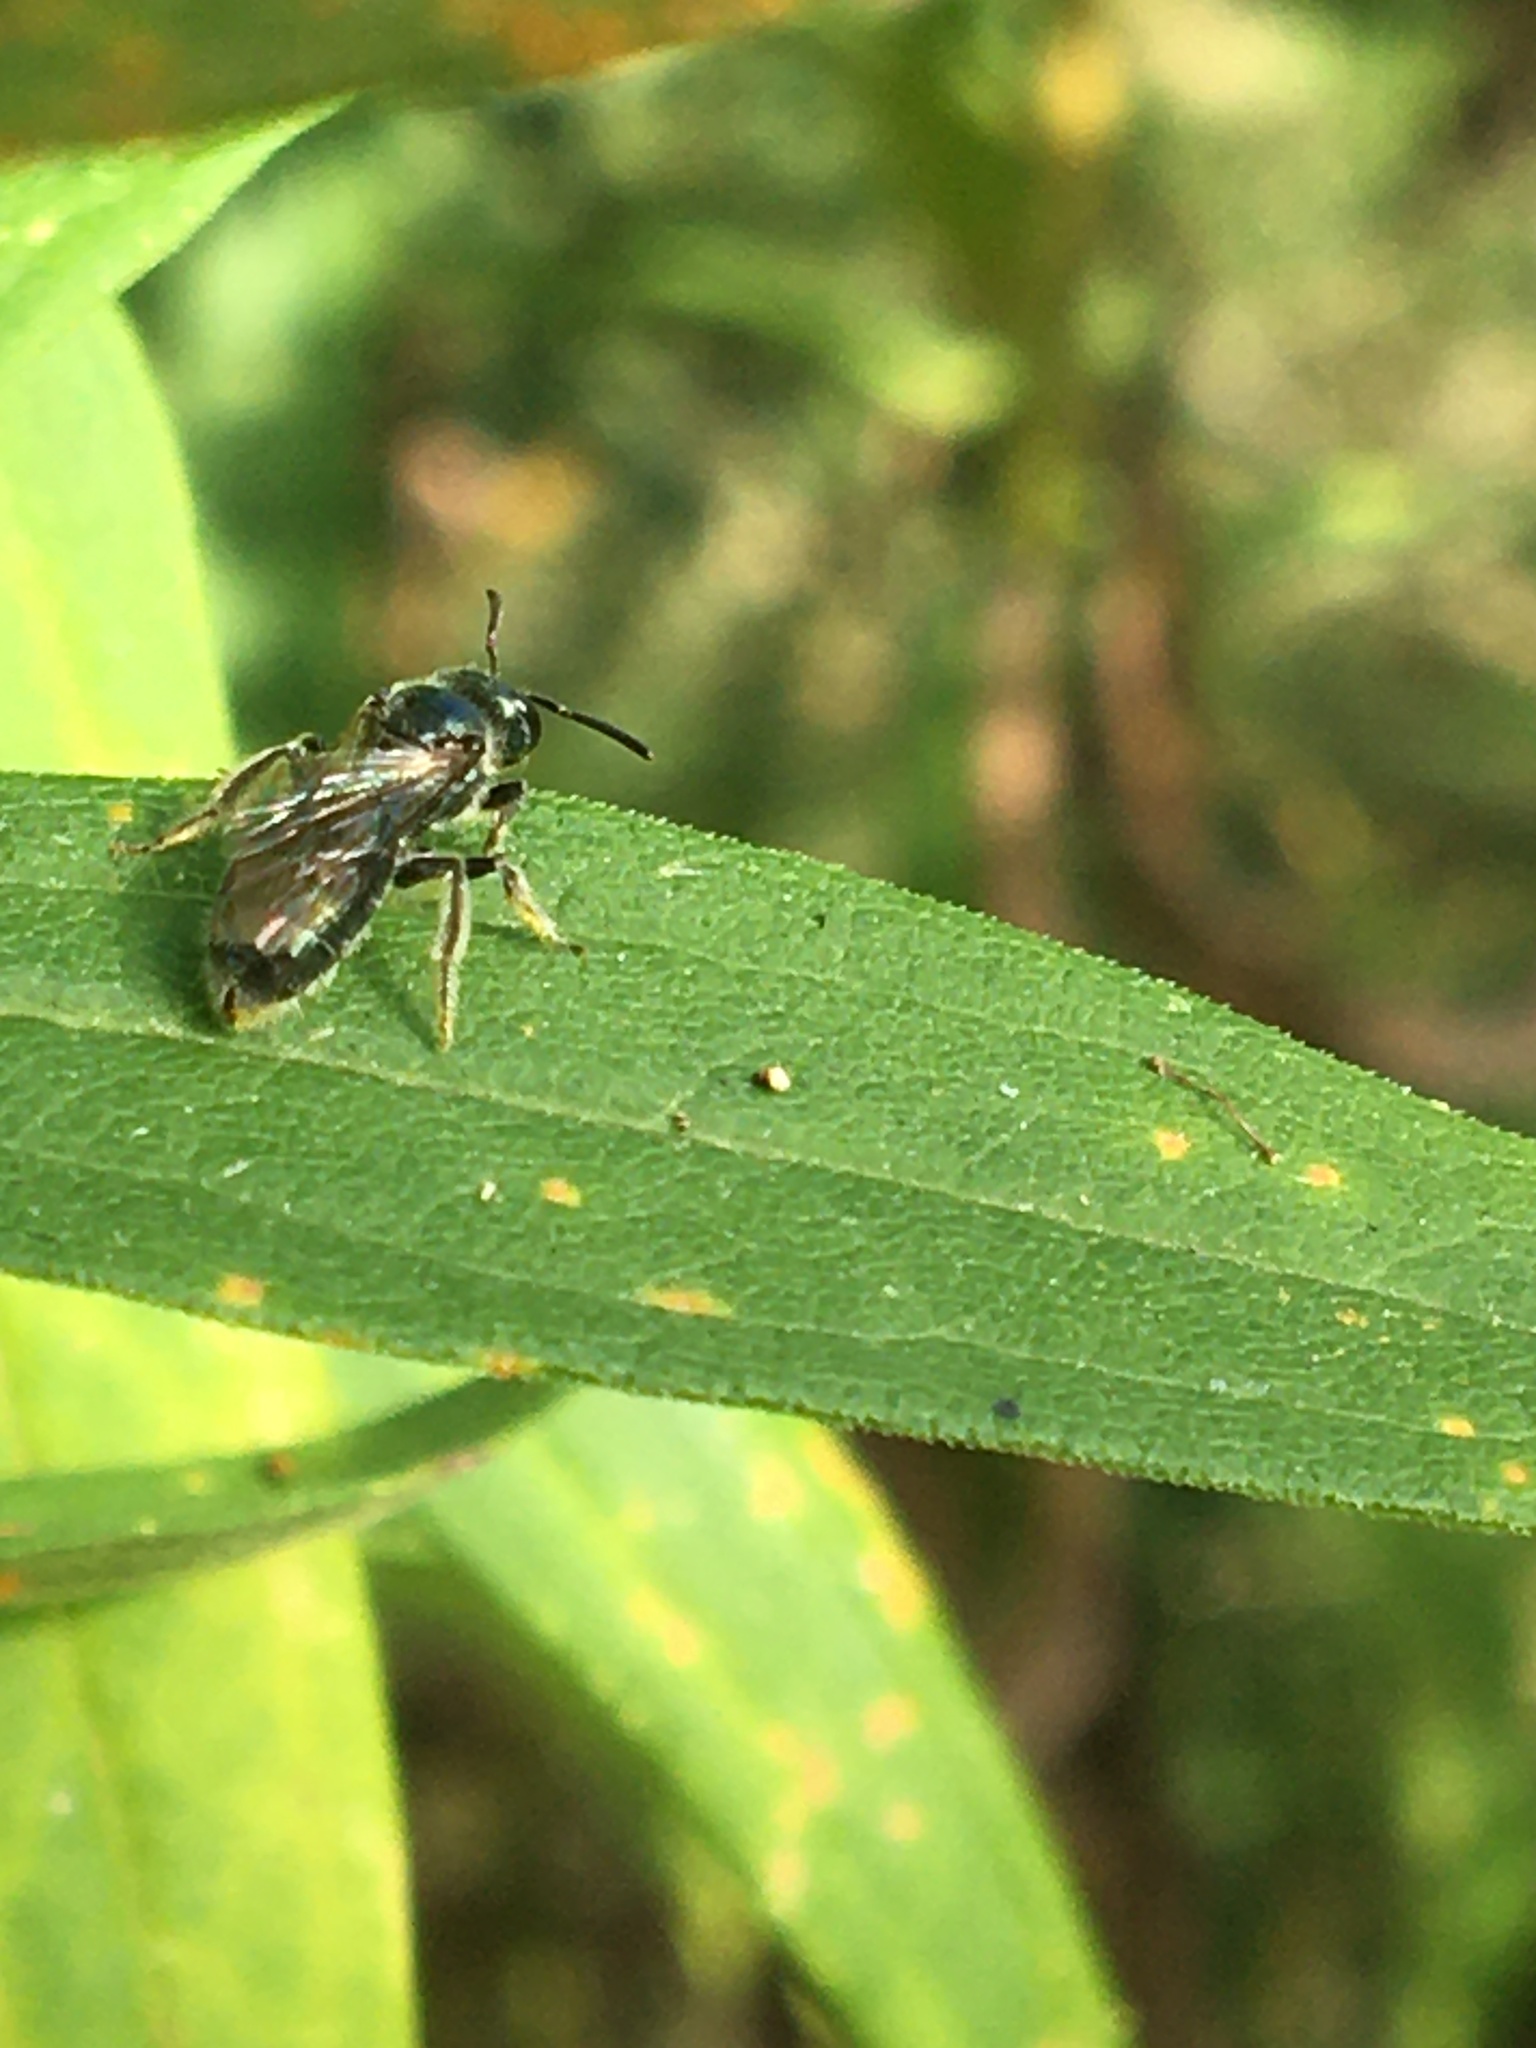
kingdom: Animalia
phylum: Arthropoda
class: Insecta
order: Hymenoptera
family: Halictidae
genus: Dialictus
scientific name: Dialictus
